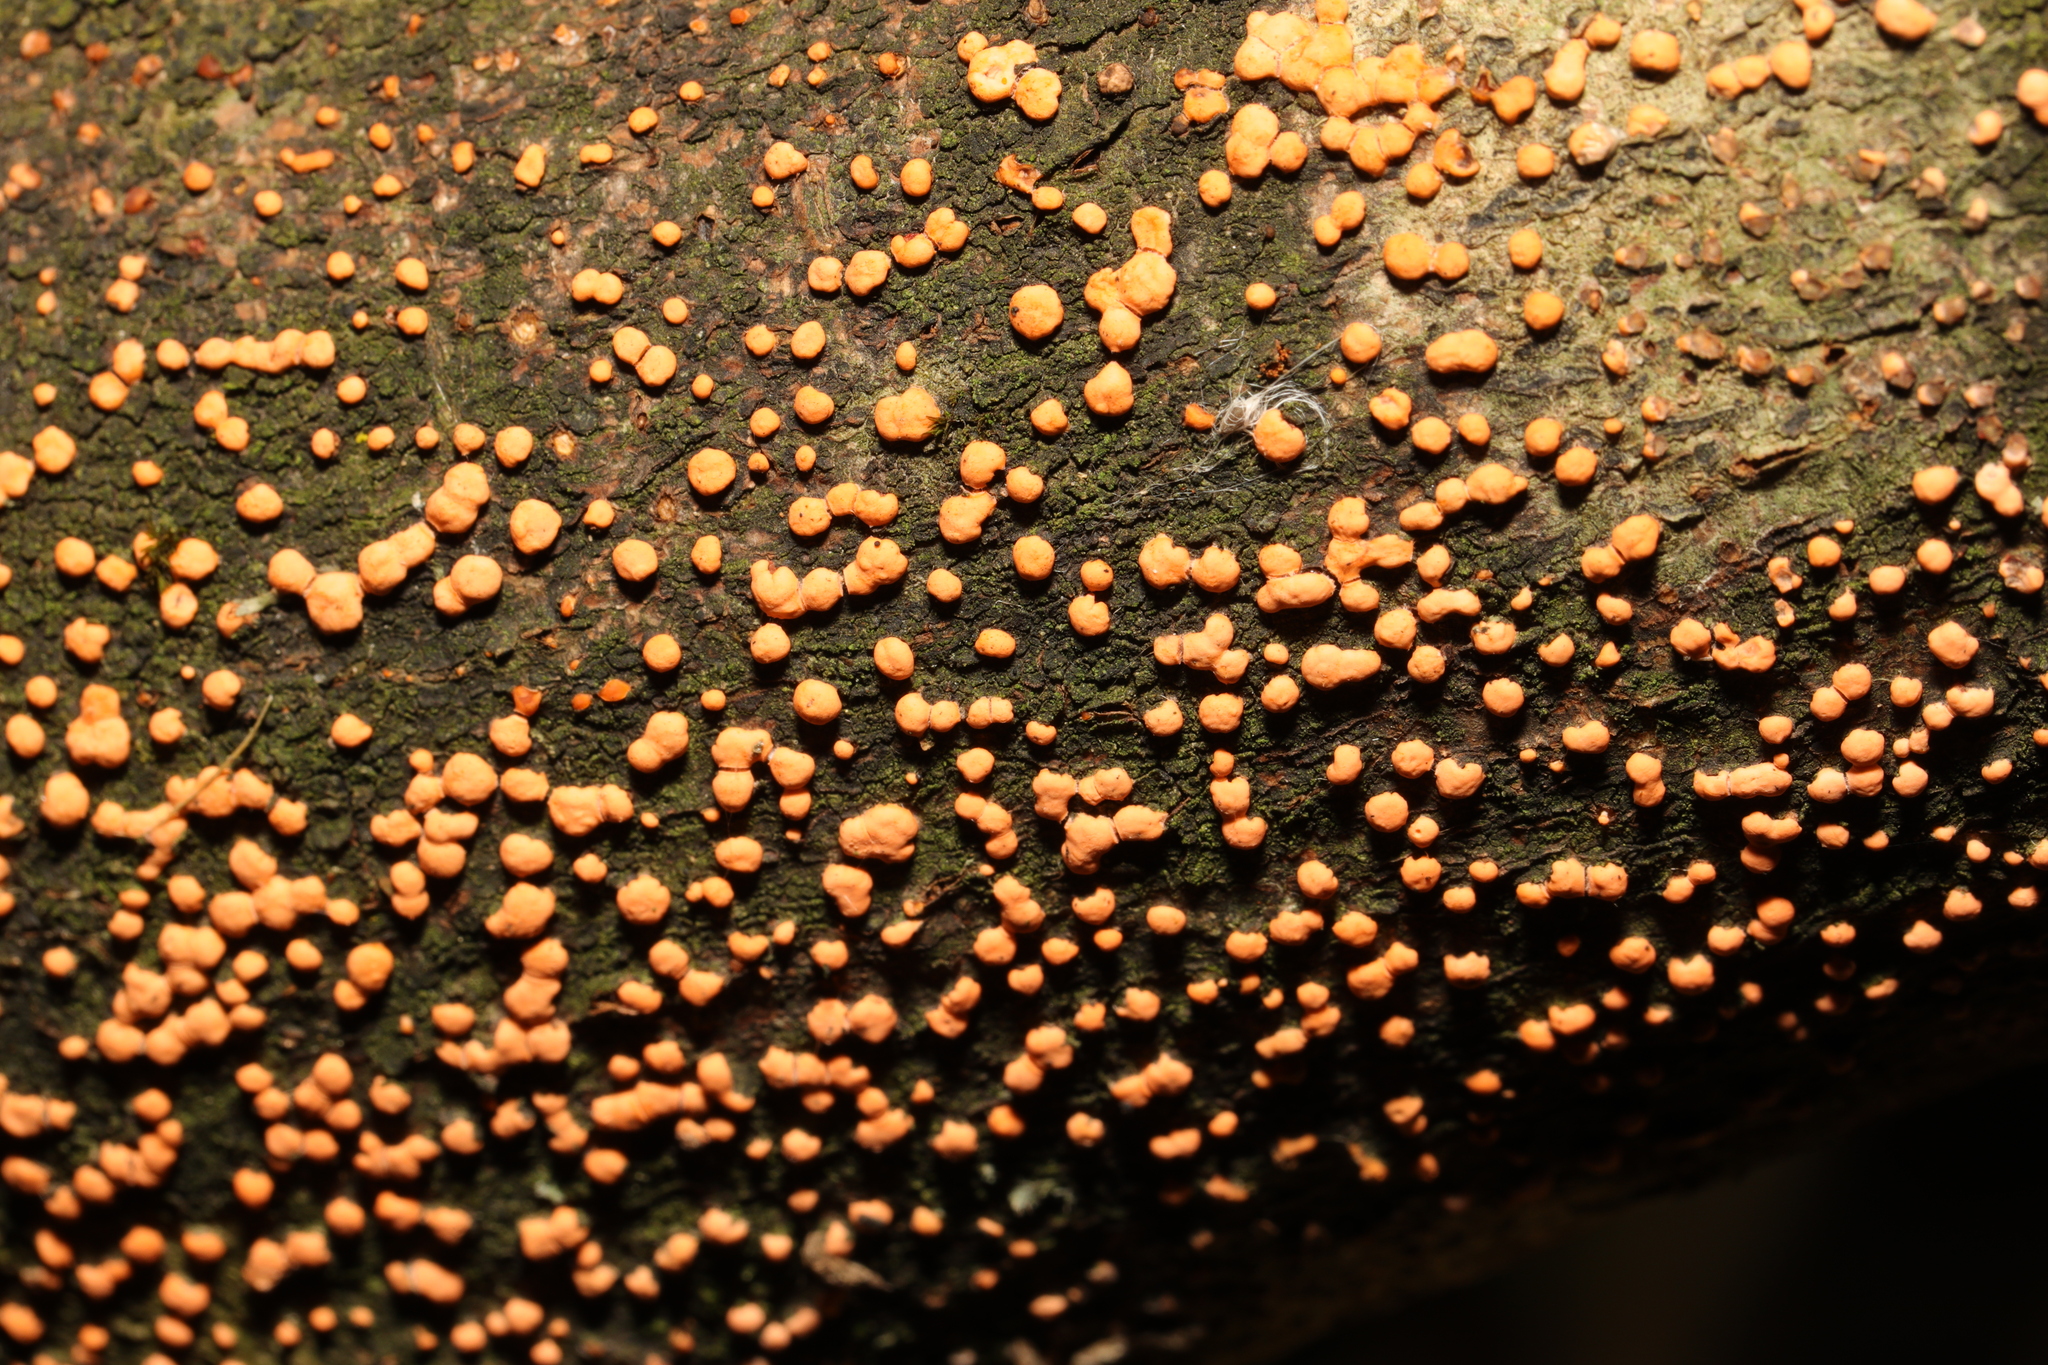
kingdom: Fungi
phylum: Ascomycota
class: Sordariomycetes
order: Hypocreales
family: Nectriaceae
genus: Nectria
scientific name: Nectria cinnabarina
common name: Coral spot
